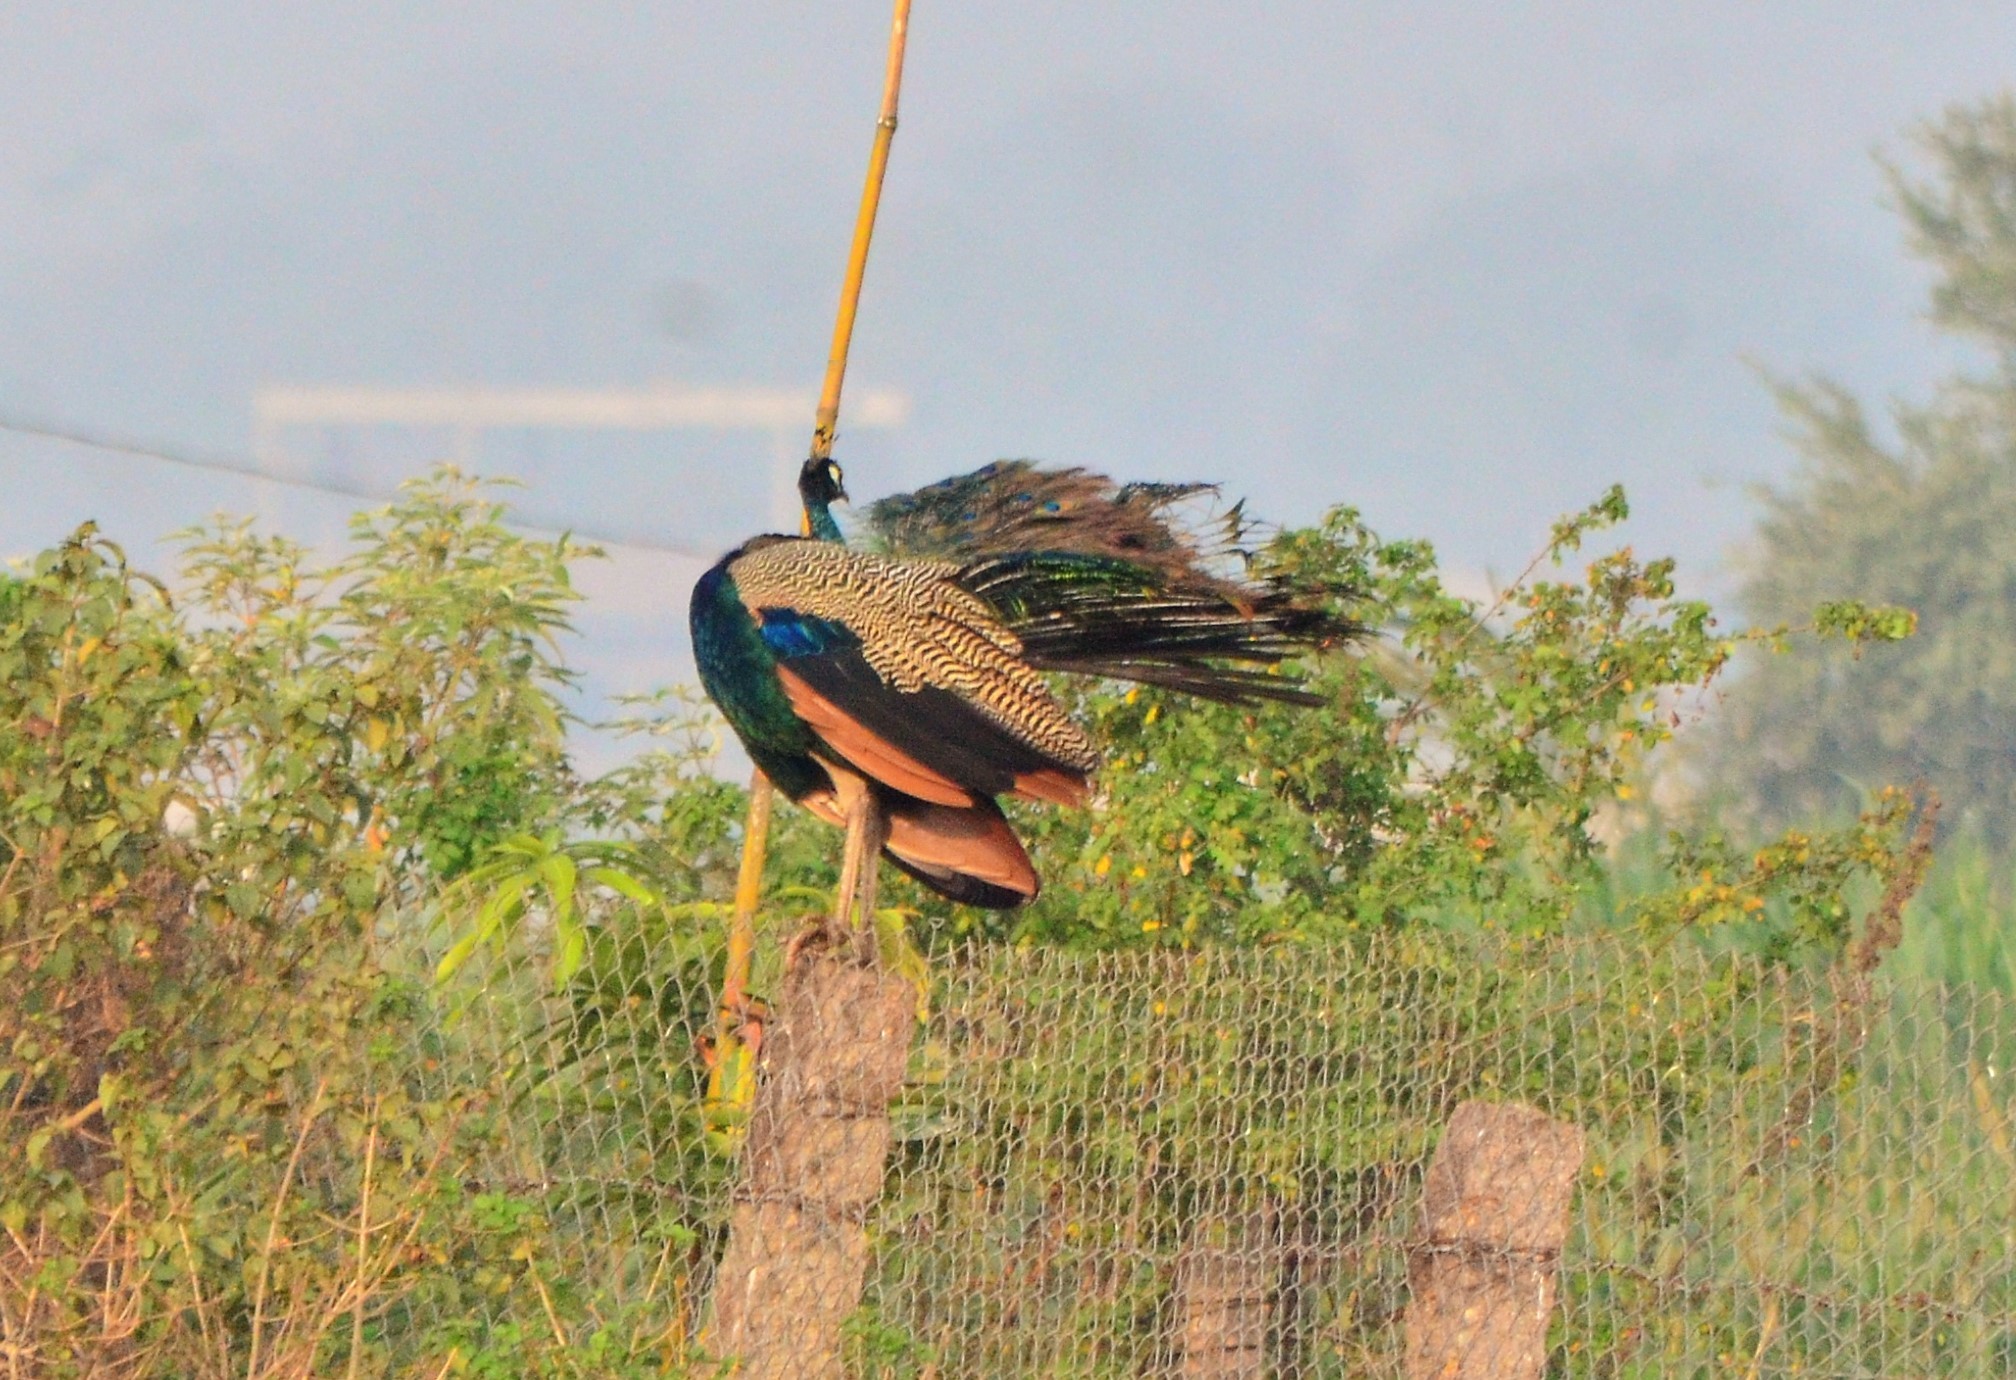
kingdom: Animalia
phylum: Chordata
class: Aves
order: Galliformes
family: Phasianidae
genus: Pavo
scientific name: Pavo cristatus
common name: Indian peafowl
